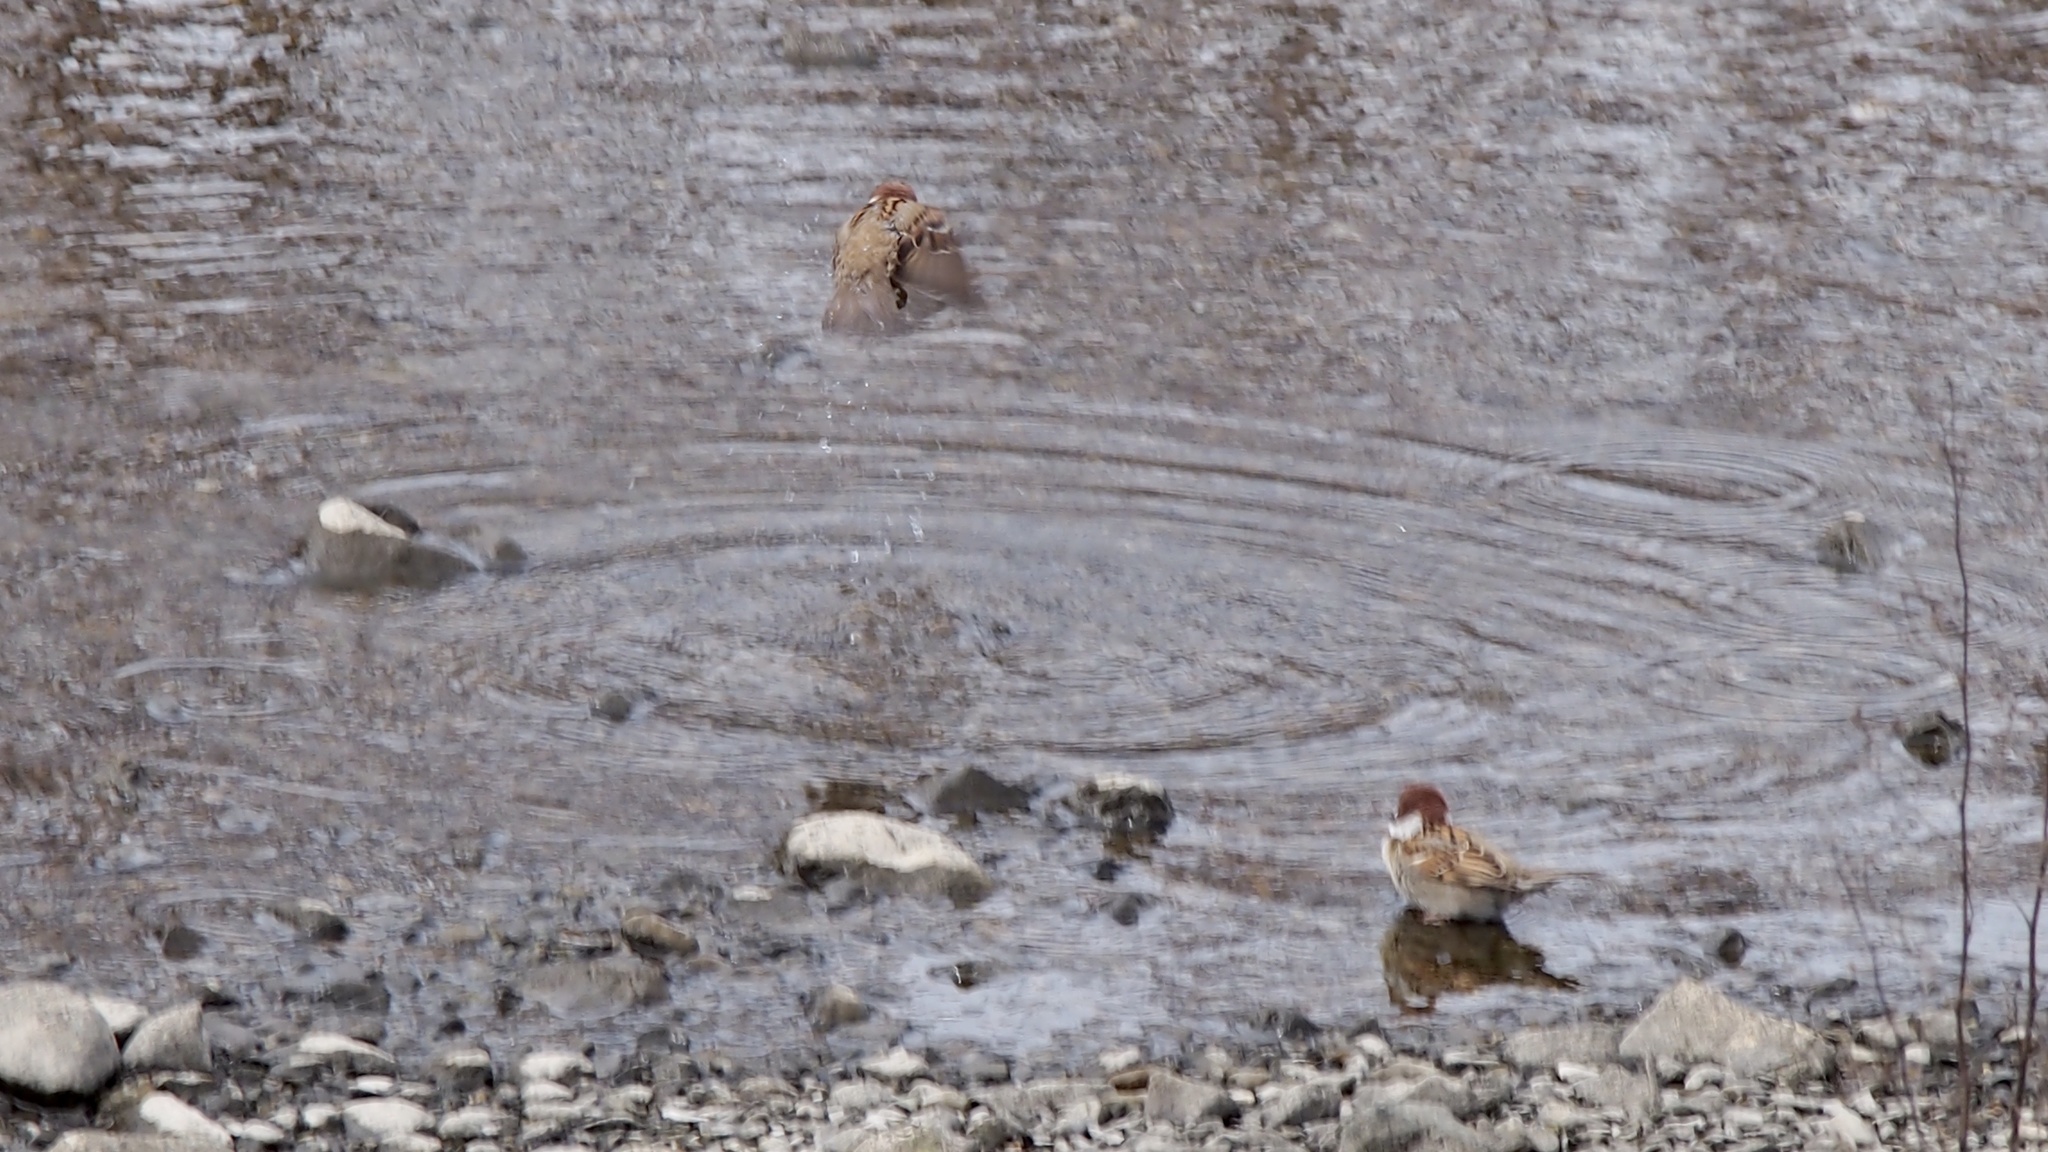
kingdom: Animalia
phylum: Chordata
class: Aves
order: Passeriformes
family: Passeridae
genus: Passer
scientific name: Passer montanus
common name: Eurasian tree sparrow
